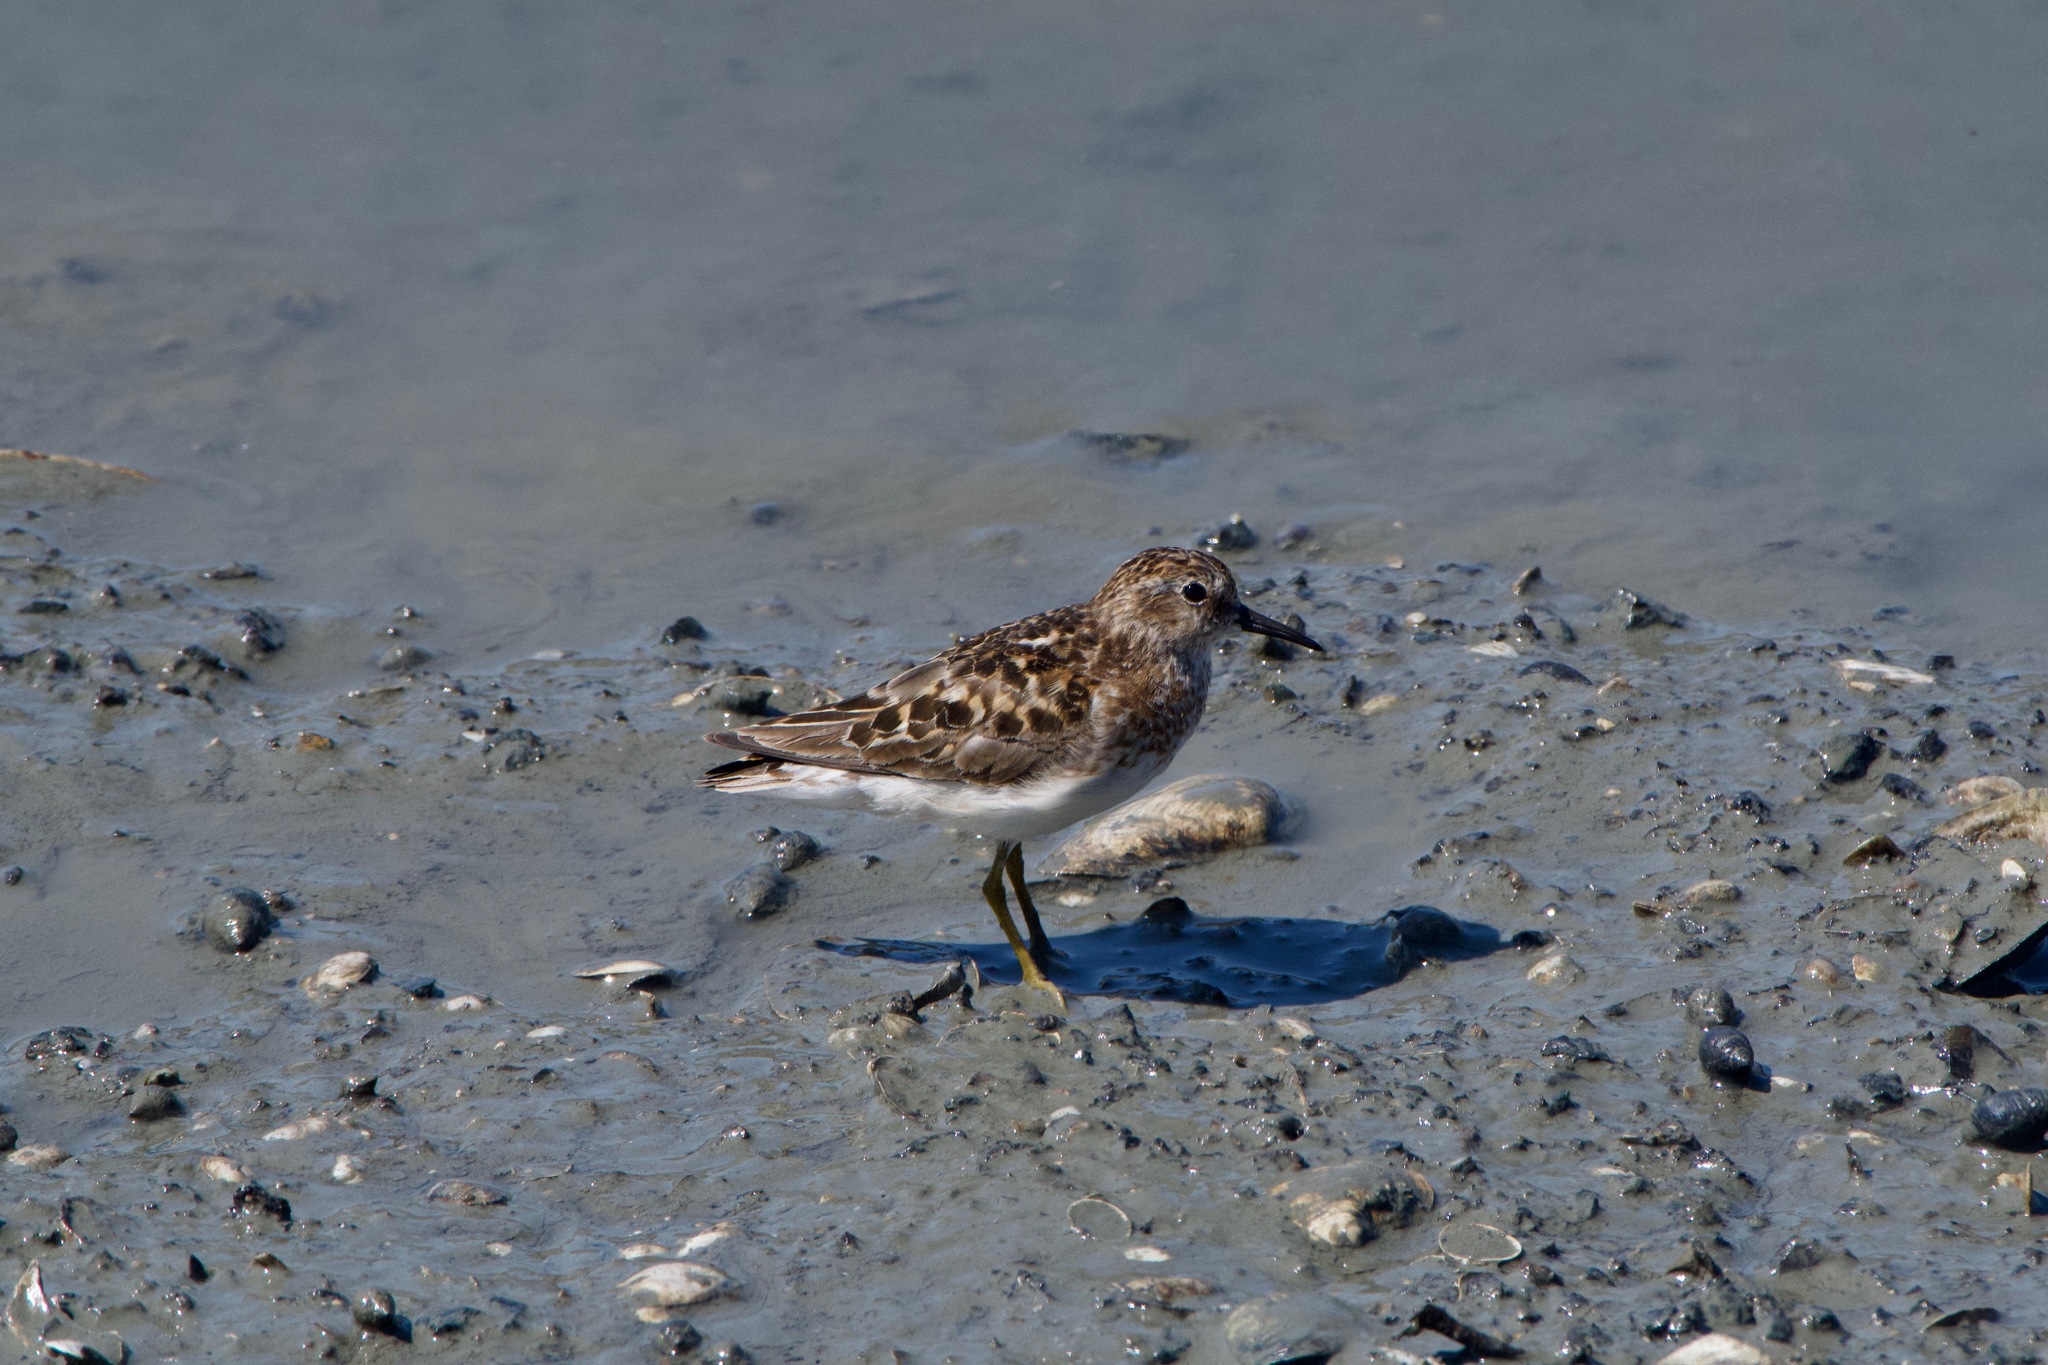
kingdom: Animalia
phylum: Chordata
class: Aves
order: Charadriiformes
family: Scolopacidae
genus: Calidris
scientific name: Calidris minutilla
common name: Least sandpiper
